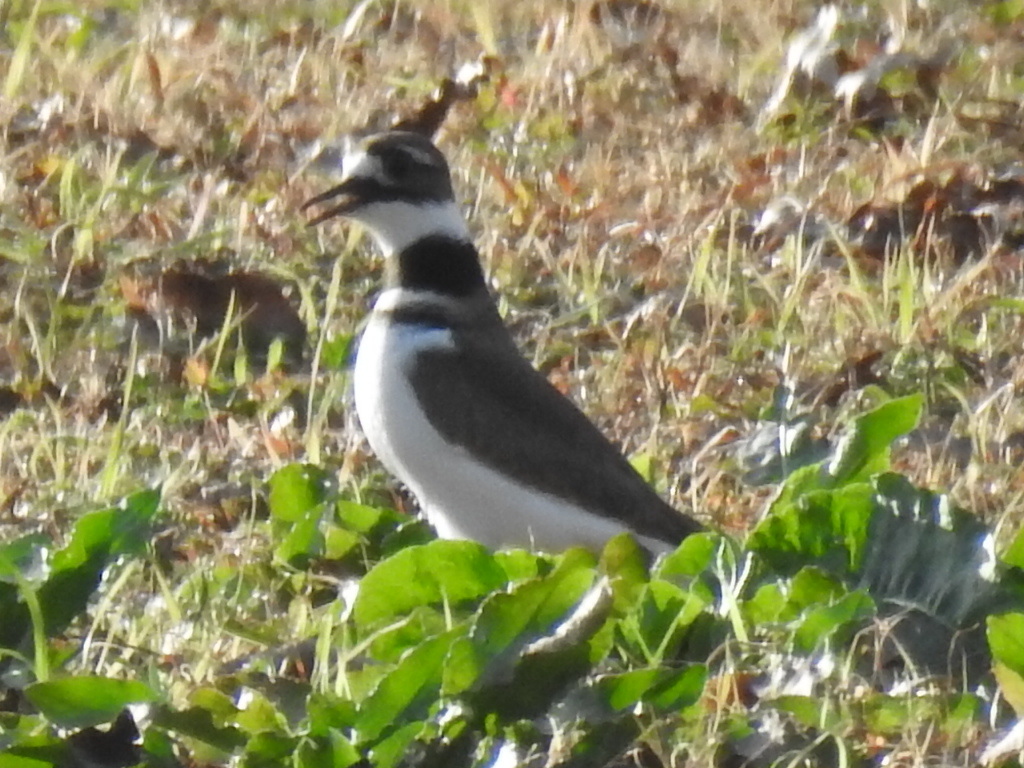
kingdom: Animalia
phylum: Chordata
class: Aves
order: Charadriiformes
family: Charadriidae
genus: Charadrius
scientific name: Charadrius vociferus
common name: Killdeer
